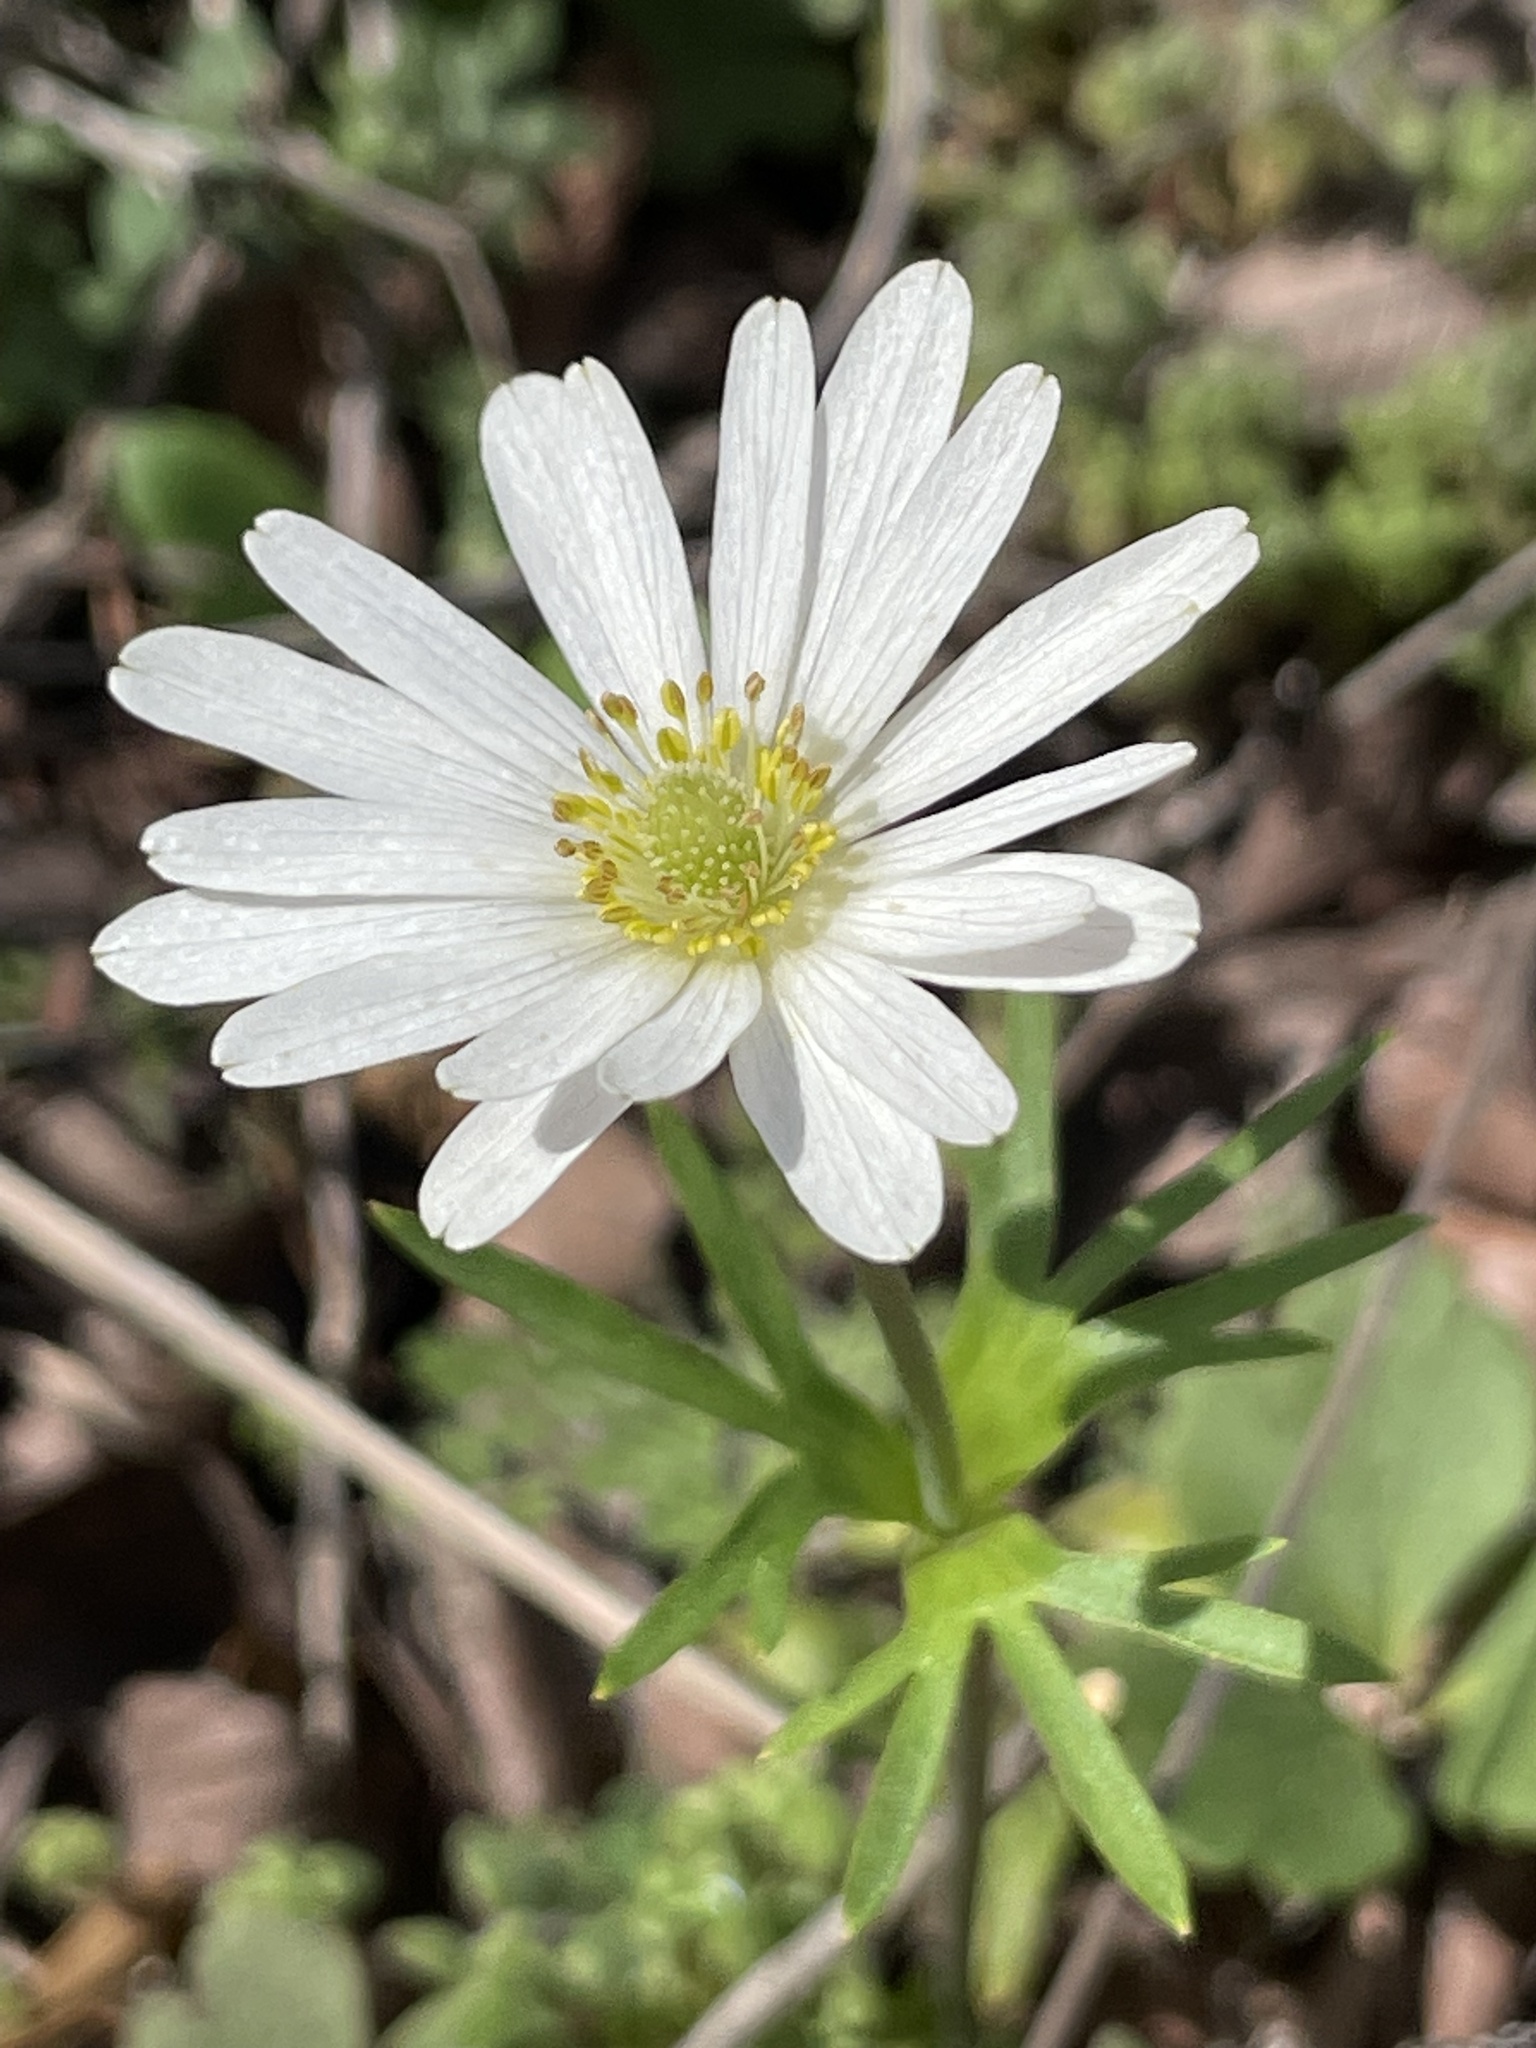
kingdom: Plantae
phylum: Tracheophyta
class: Magnoliopsida
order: Ranunculales
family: Ranunculaceae
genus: Anemone
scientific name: Anemone berlandieri
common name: Ten-petal anemone
